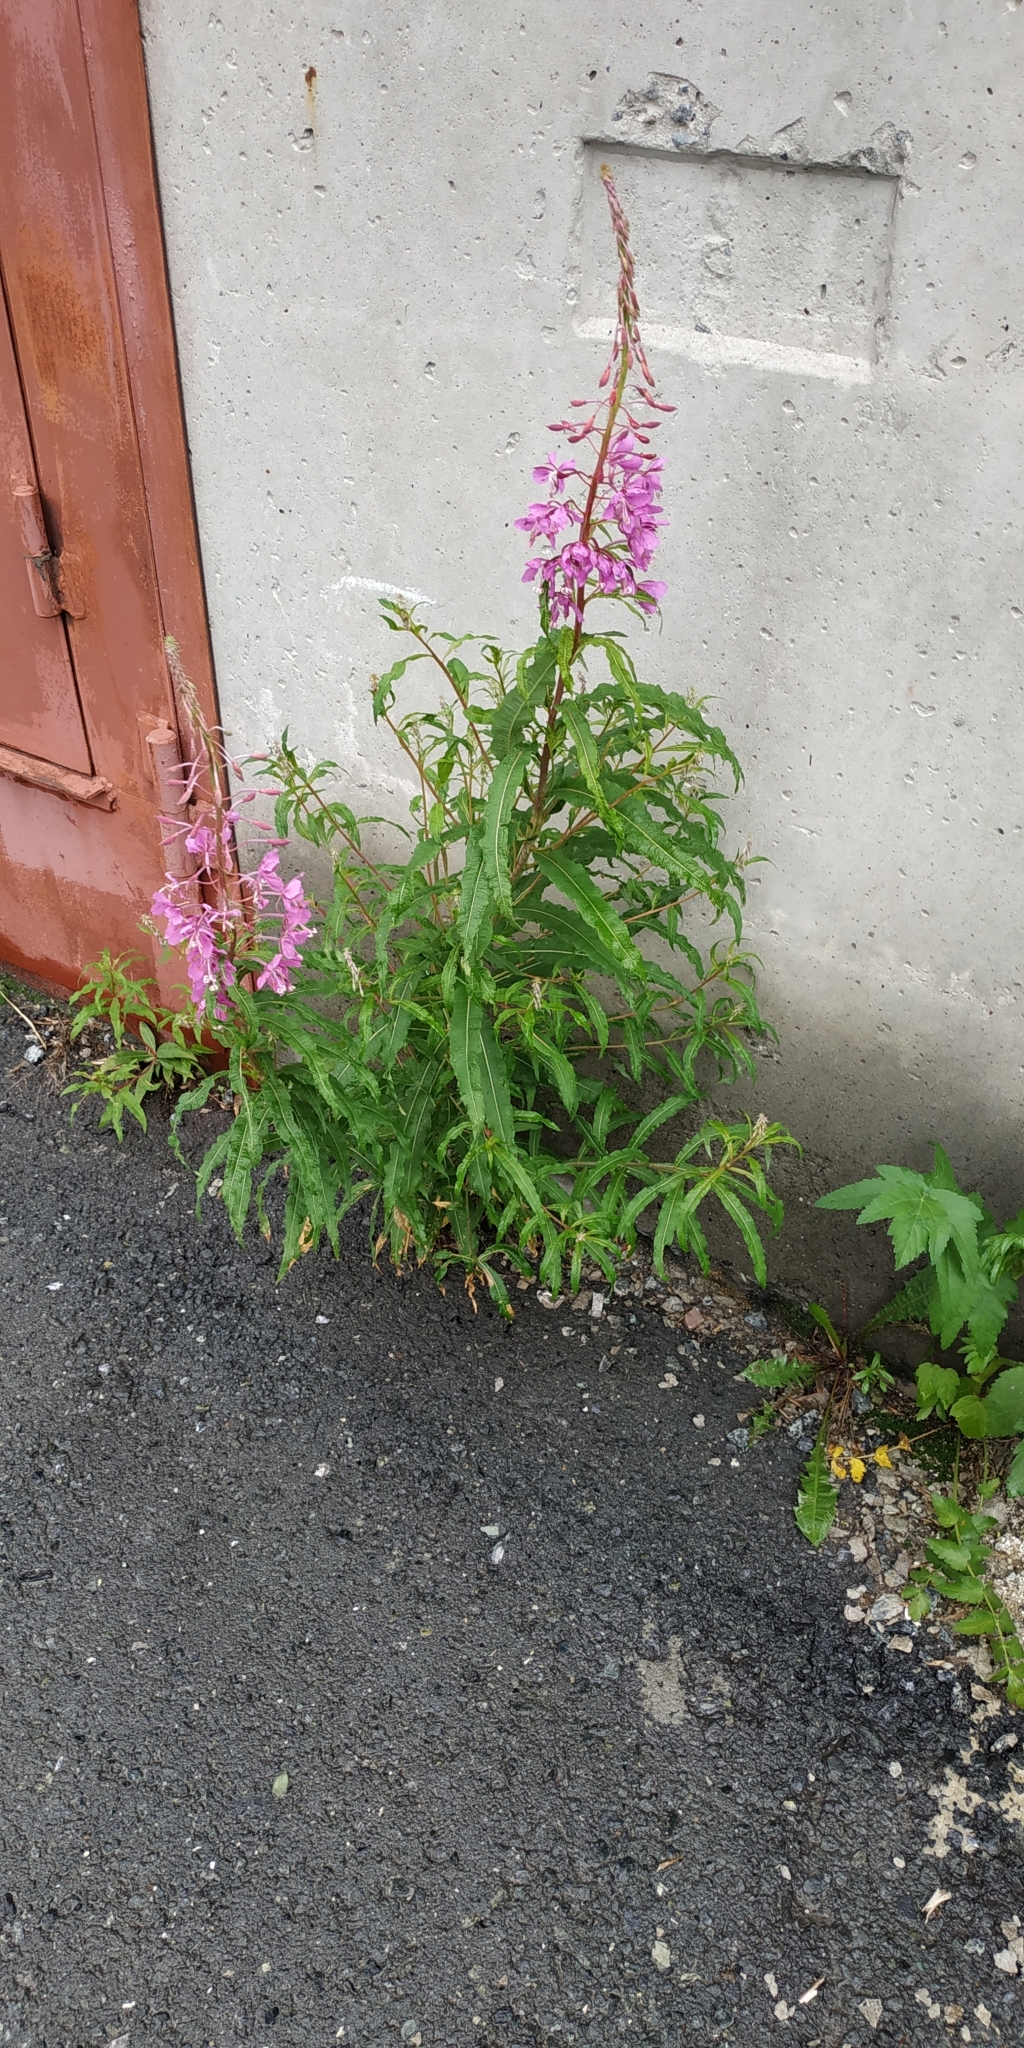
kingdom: Plantae
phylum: Tracheophyta
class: Magnoliopsida
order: Myrtales
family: Onagraceae
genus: Chamaenerion
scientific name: Chamaenerion angustifolium
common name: Fireweed
